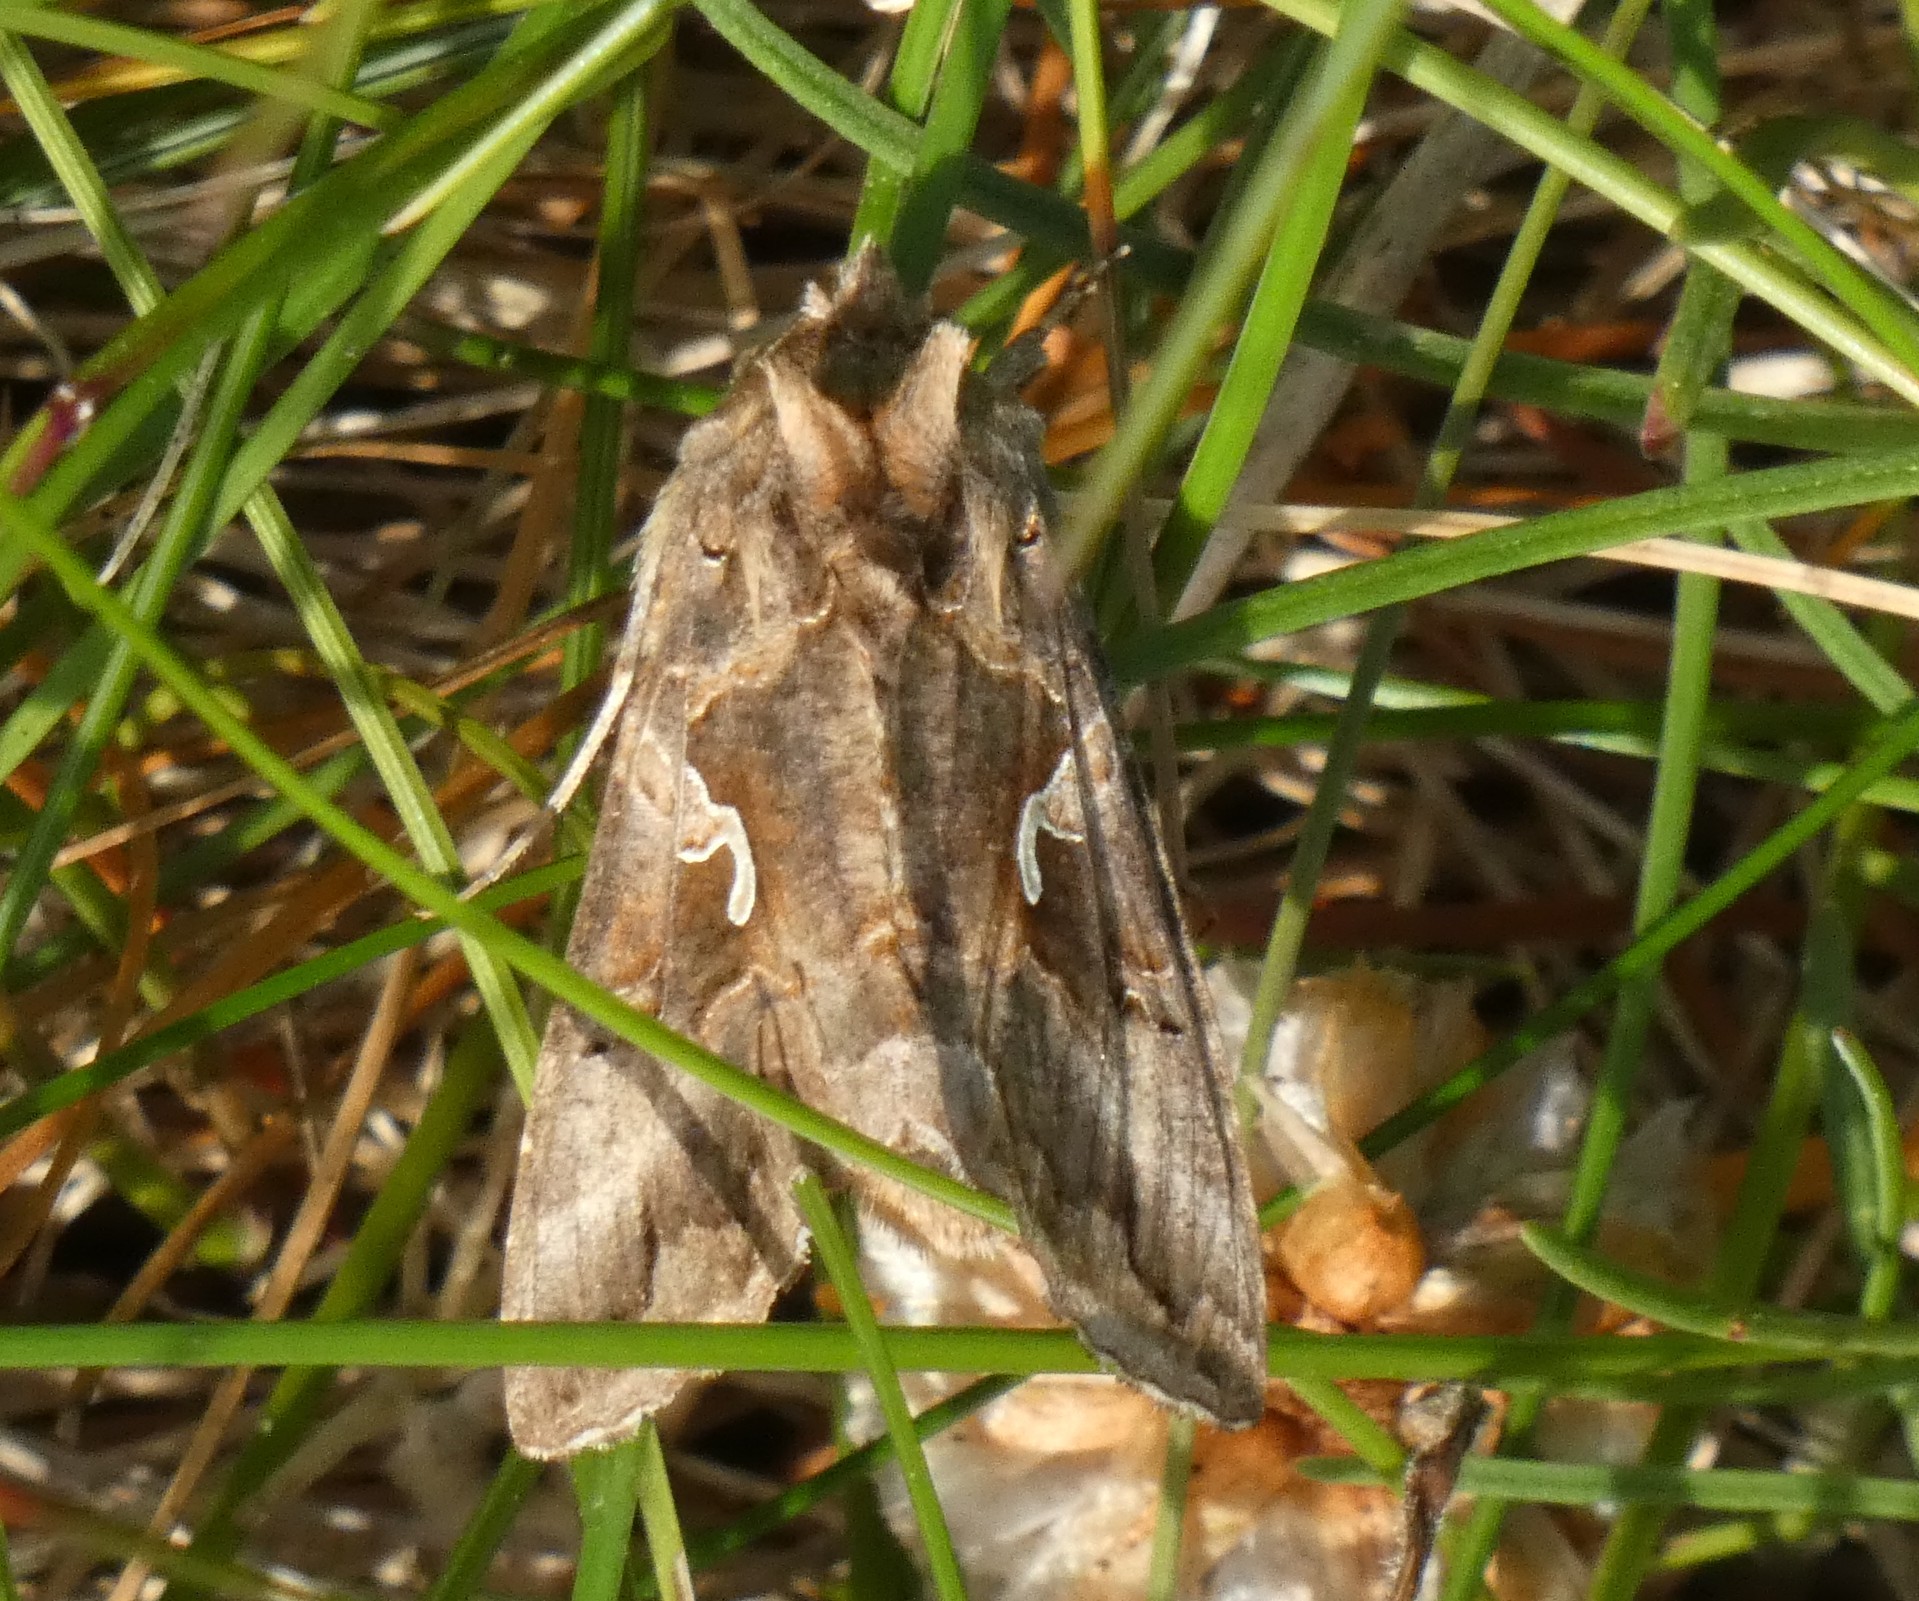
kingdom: Animalia
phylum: Arthropoda
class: Insecta
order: Lepidoptera
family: Noctuidae
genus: Autographa
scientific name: Autographa gamma
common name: Silver y
